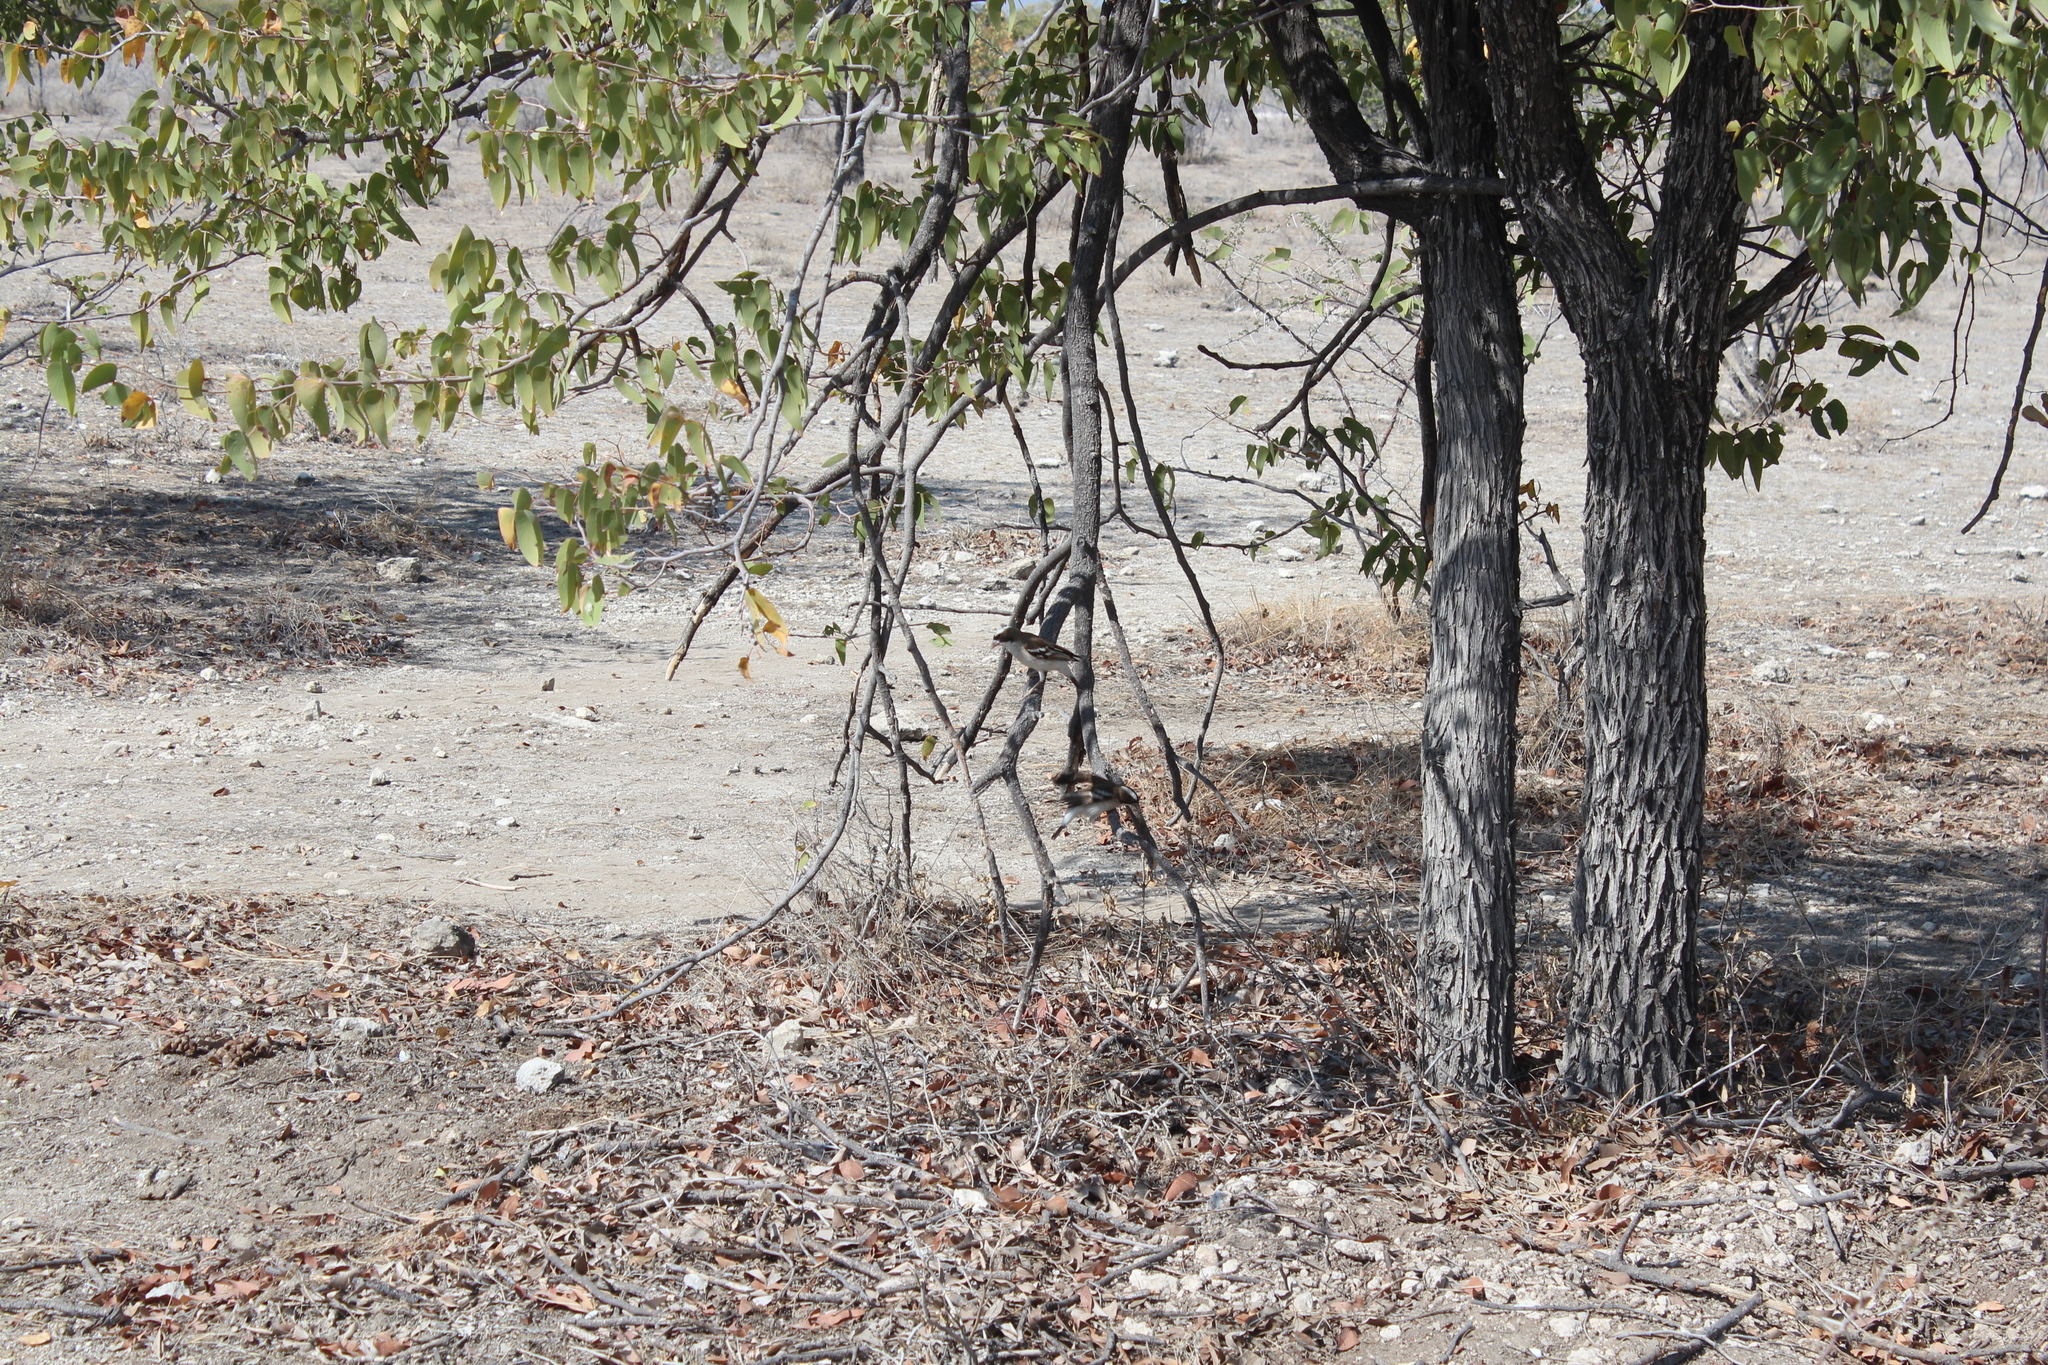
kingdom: Animalia
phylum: Chordata
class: Aves
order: Passeriformes
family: Passeridae
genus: Plocepasser
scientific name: Plocepasser mahali
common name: White-browed sparrow-weaver
